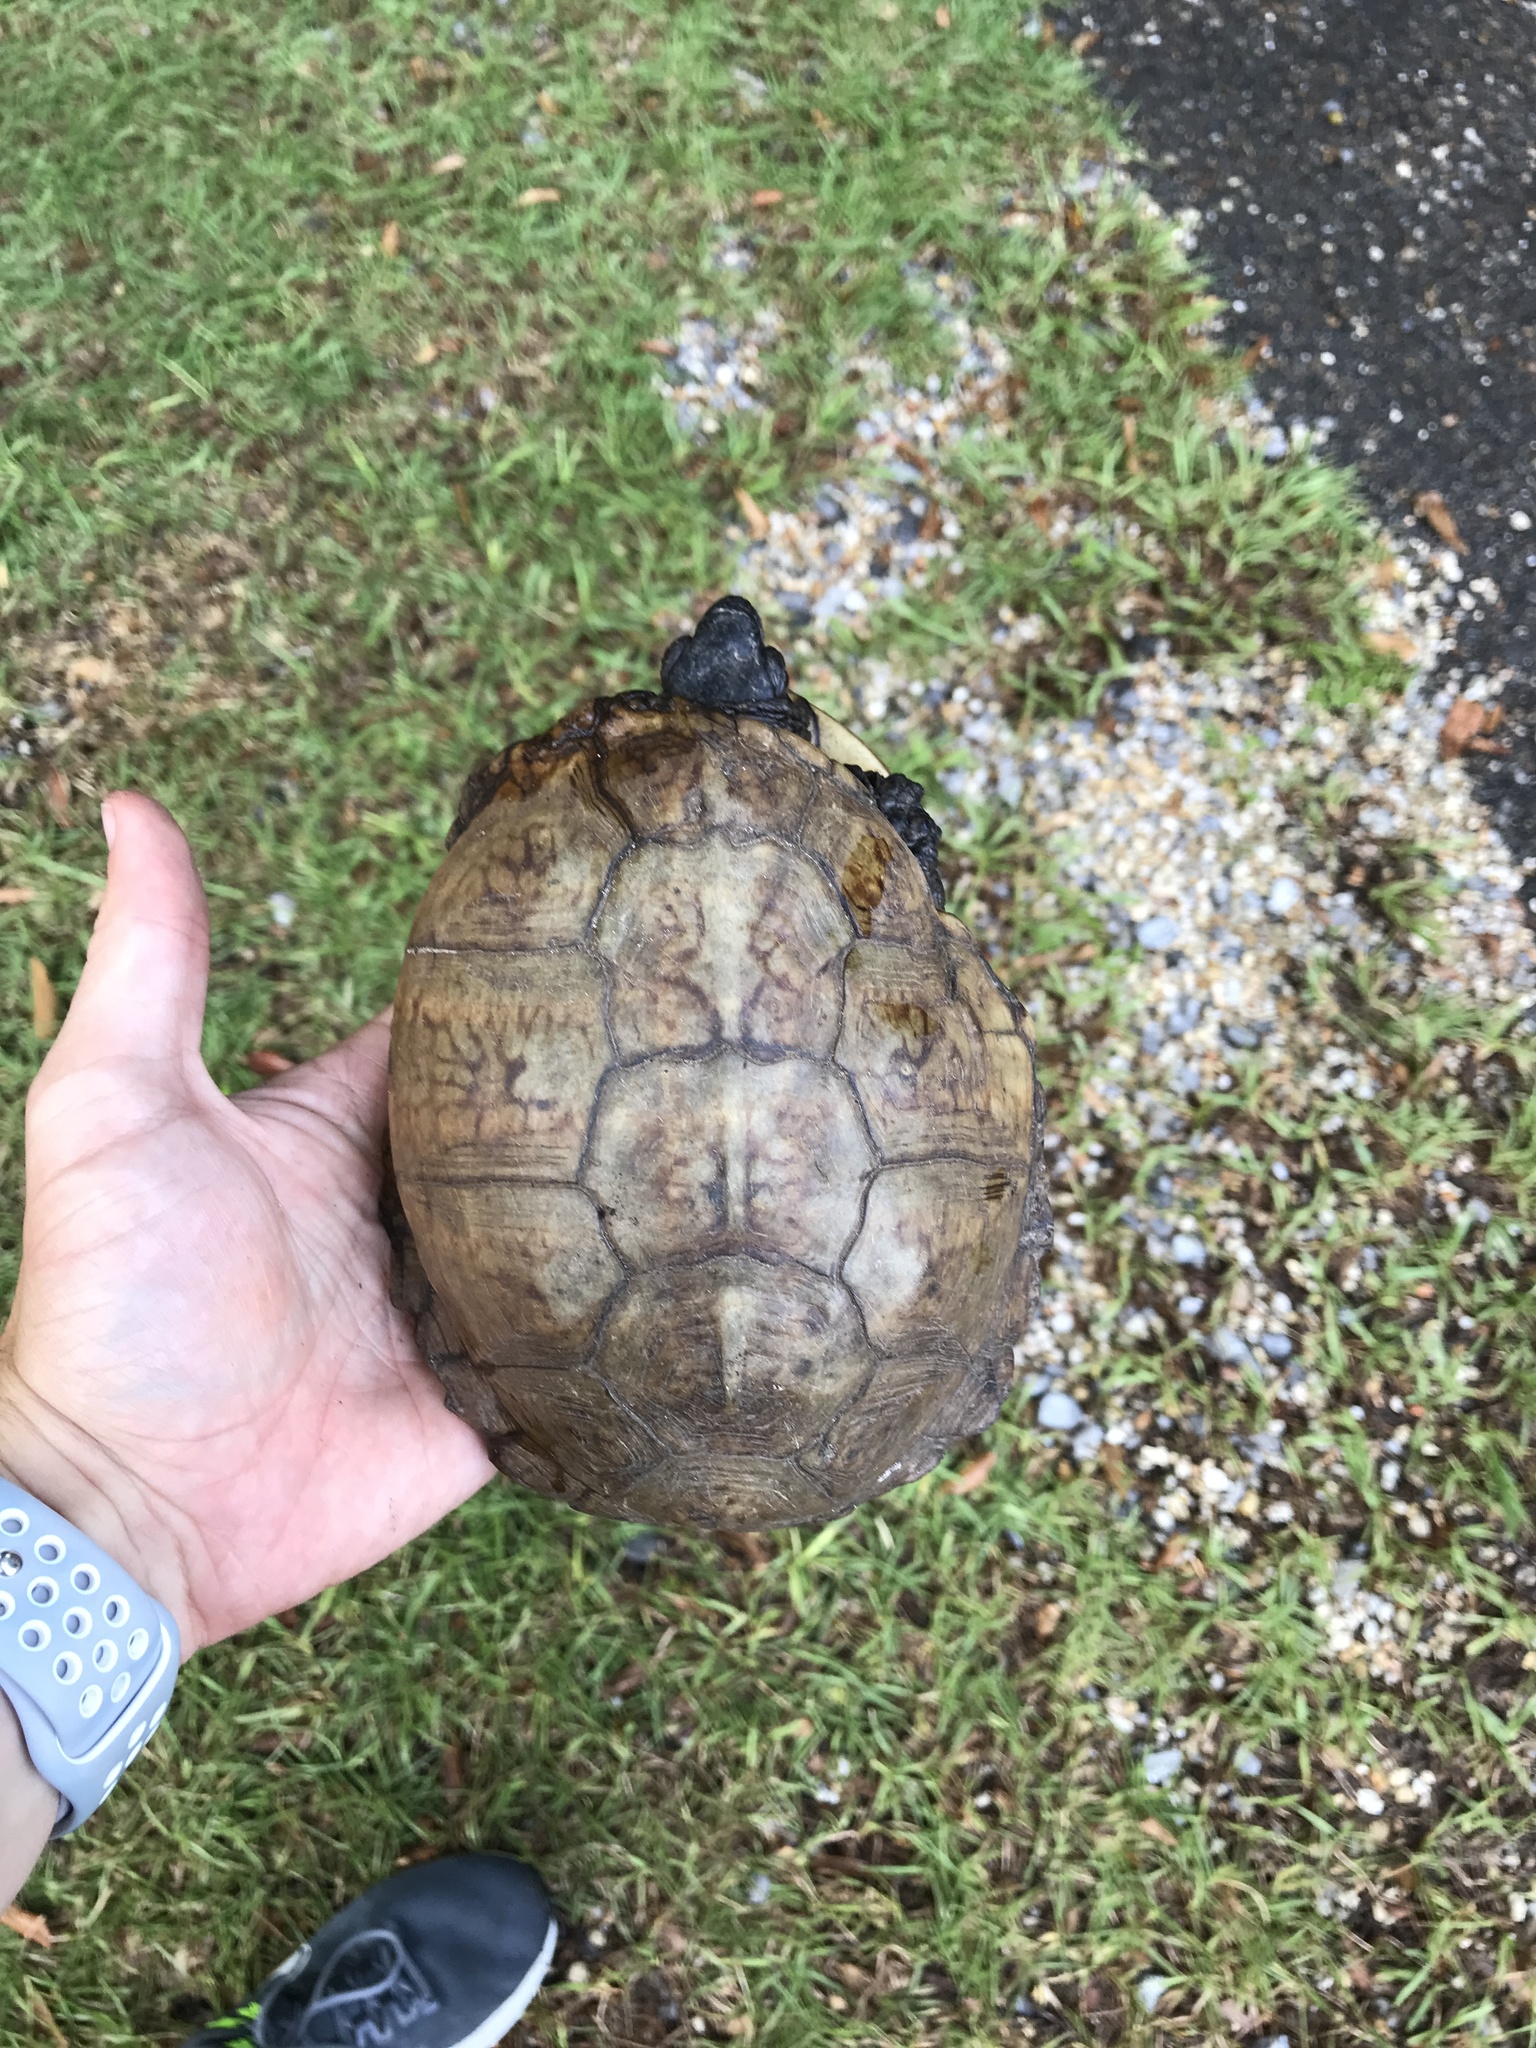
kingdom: Animalia
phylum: Chordata
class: Testudines
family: Emydidae
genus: Terrapene
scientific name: Terrapene carolina
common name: Common box turtle
